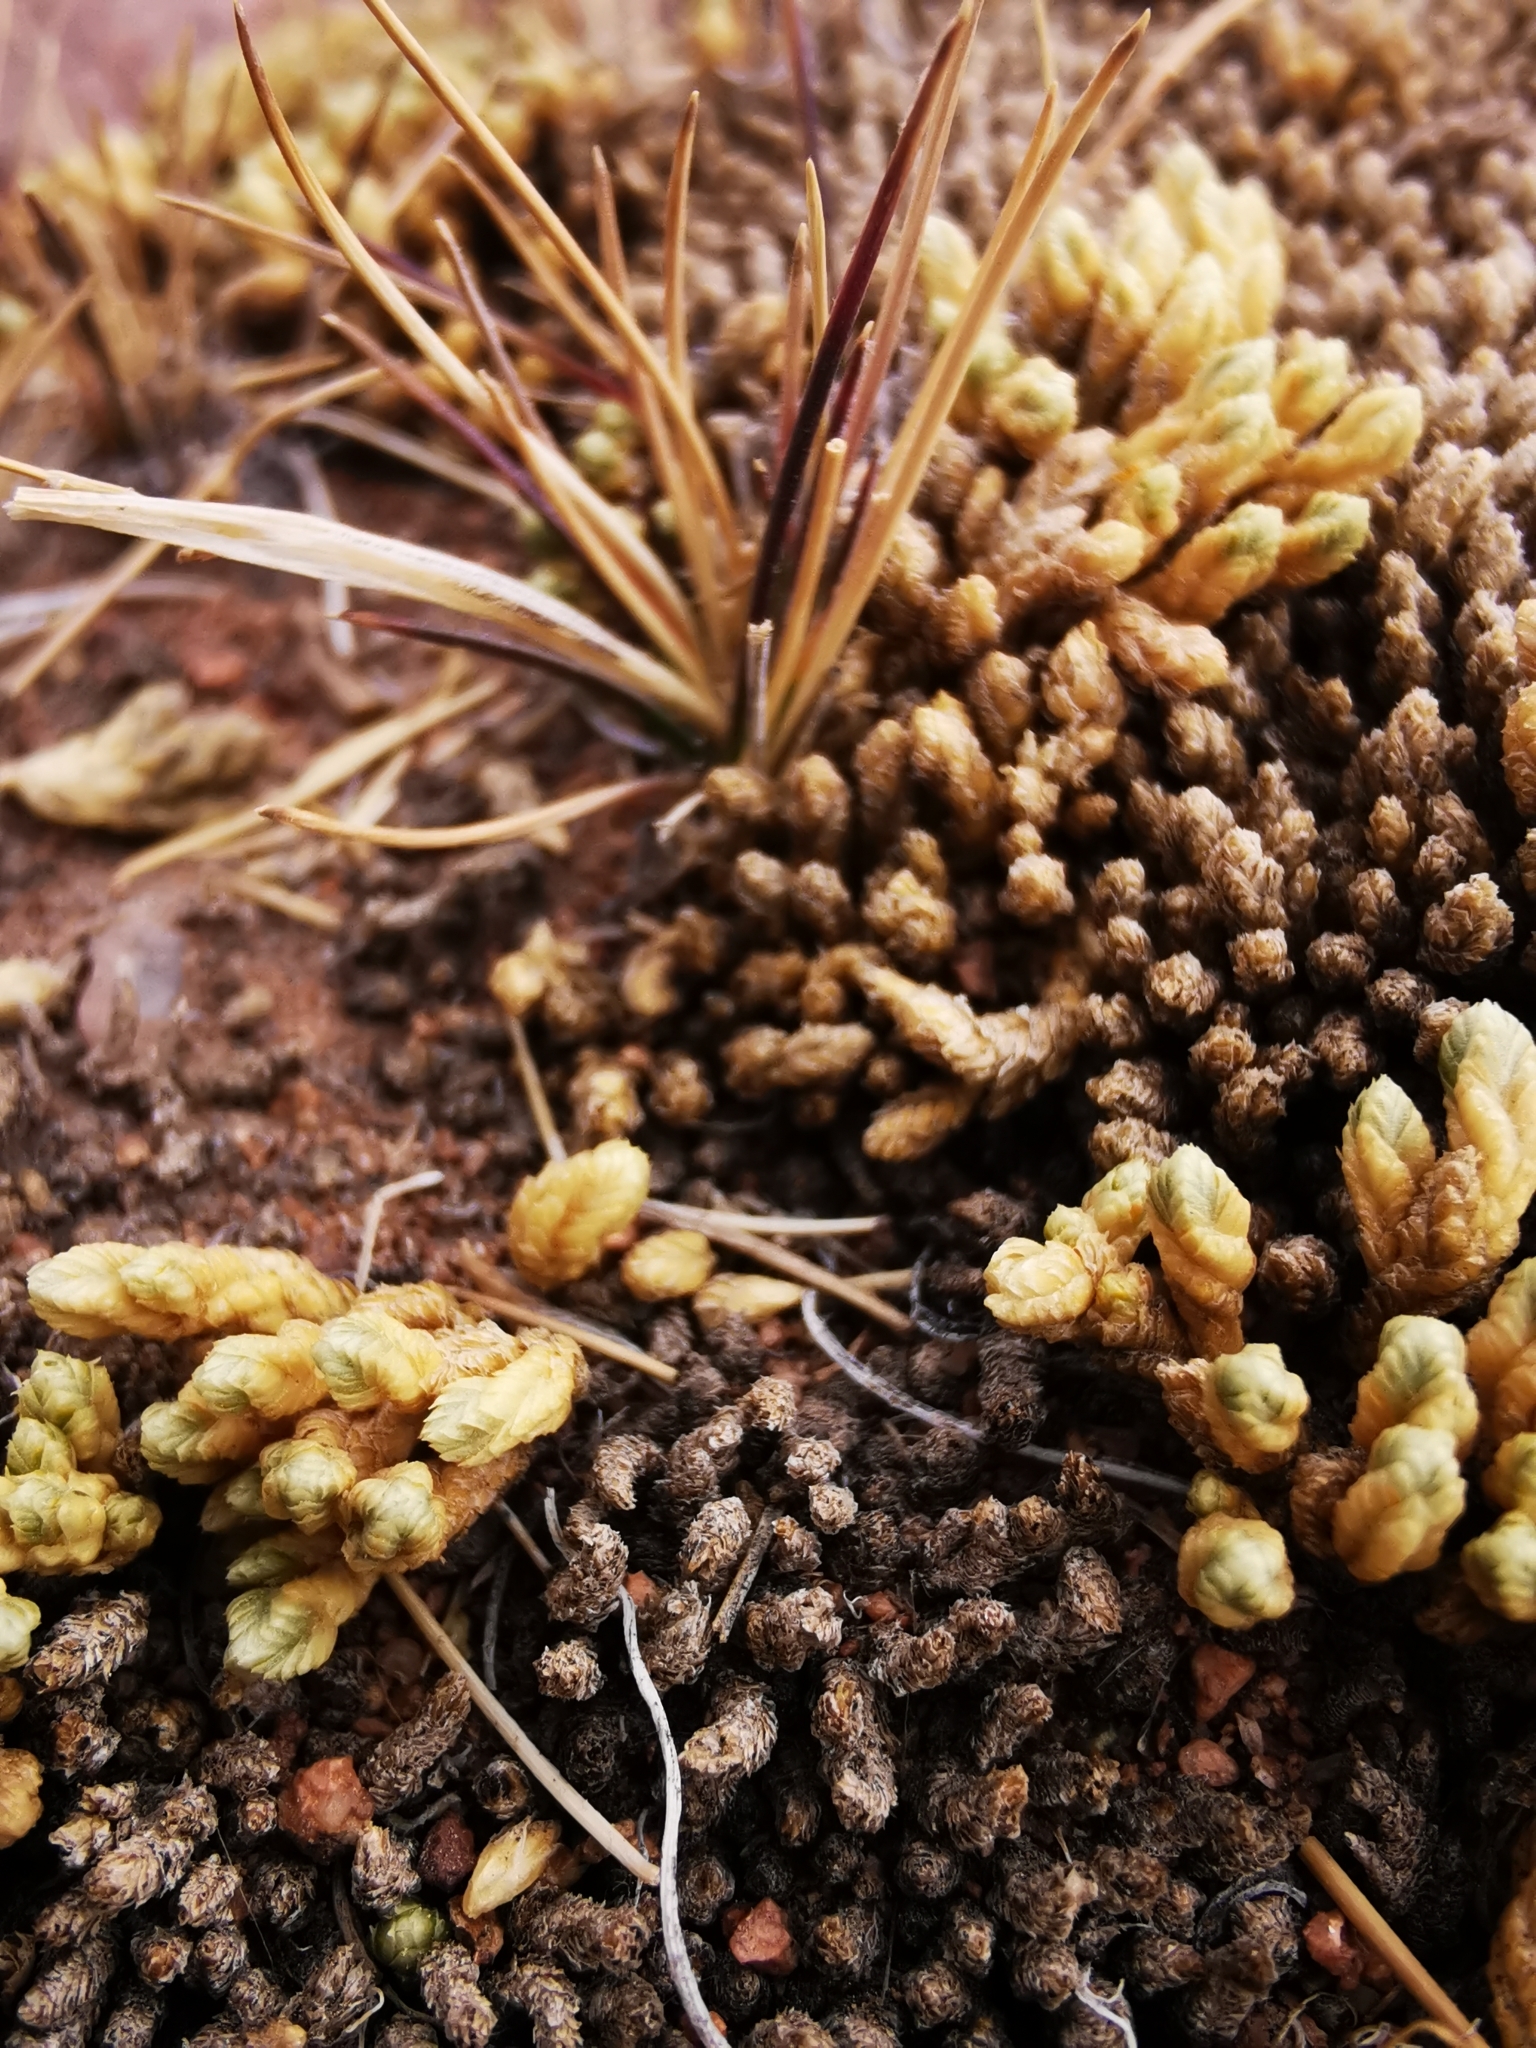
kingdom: Plantae
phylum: Tracheophyta
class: Magnoliopsida
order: Caryophyllales
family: Caryophyllaceae
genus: Pycnophyllum
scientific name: Pycnophyllum bryoides
